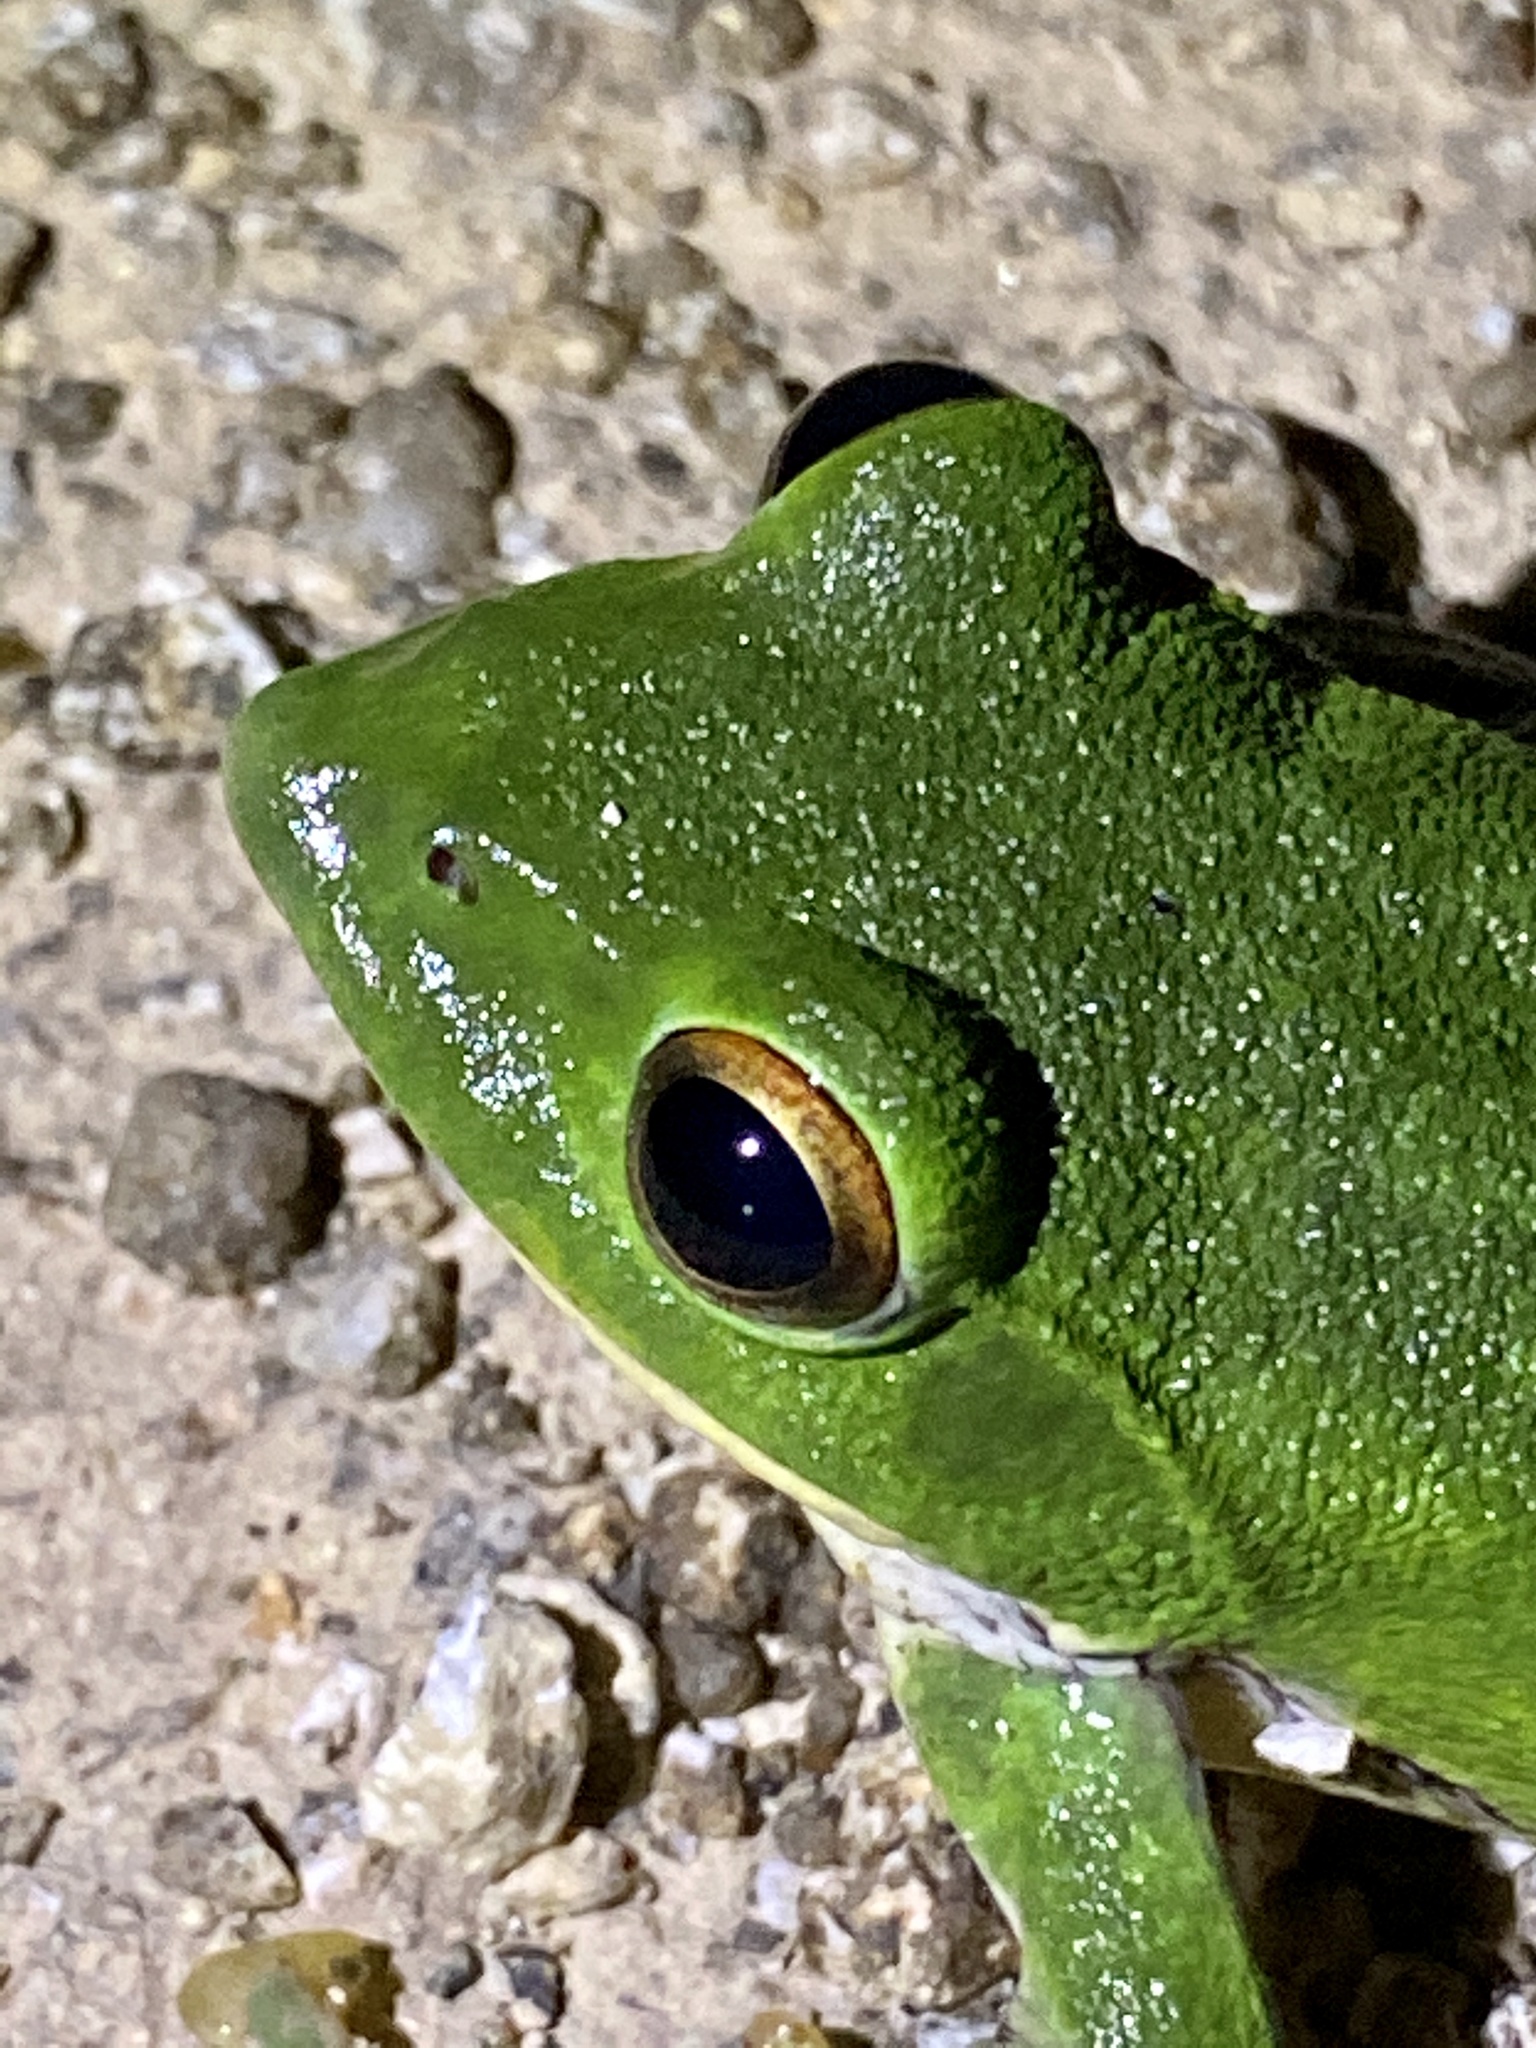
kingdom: Animalia
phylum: Chordata
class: Amphibia
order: Anura
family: Rhacophoridae
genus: Zhangixalus
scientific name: Zhangixalus arboreus
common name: Forest green tree frog
